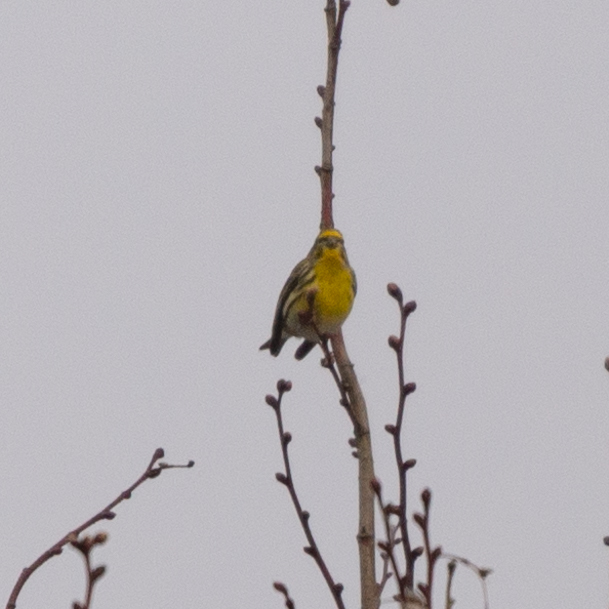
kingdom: Animalia
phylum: Chordata
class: Aves
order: Passeriformes
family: Fringillidae
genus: Serinus
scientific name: Serinus serinus
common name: European serin
